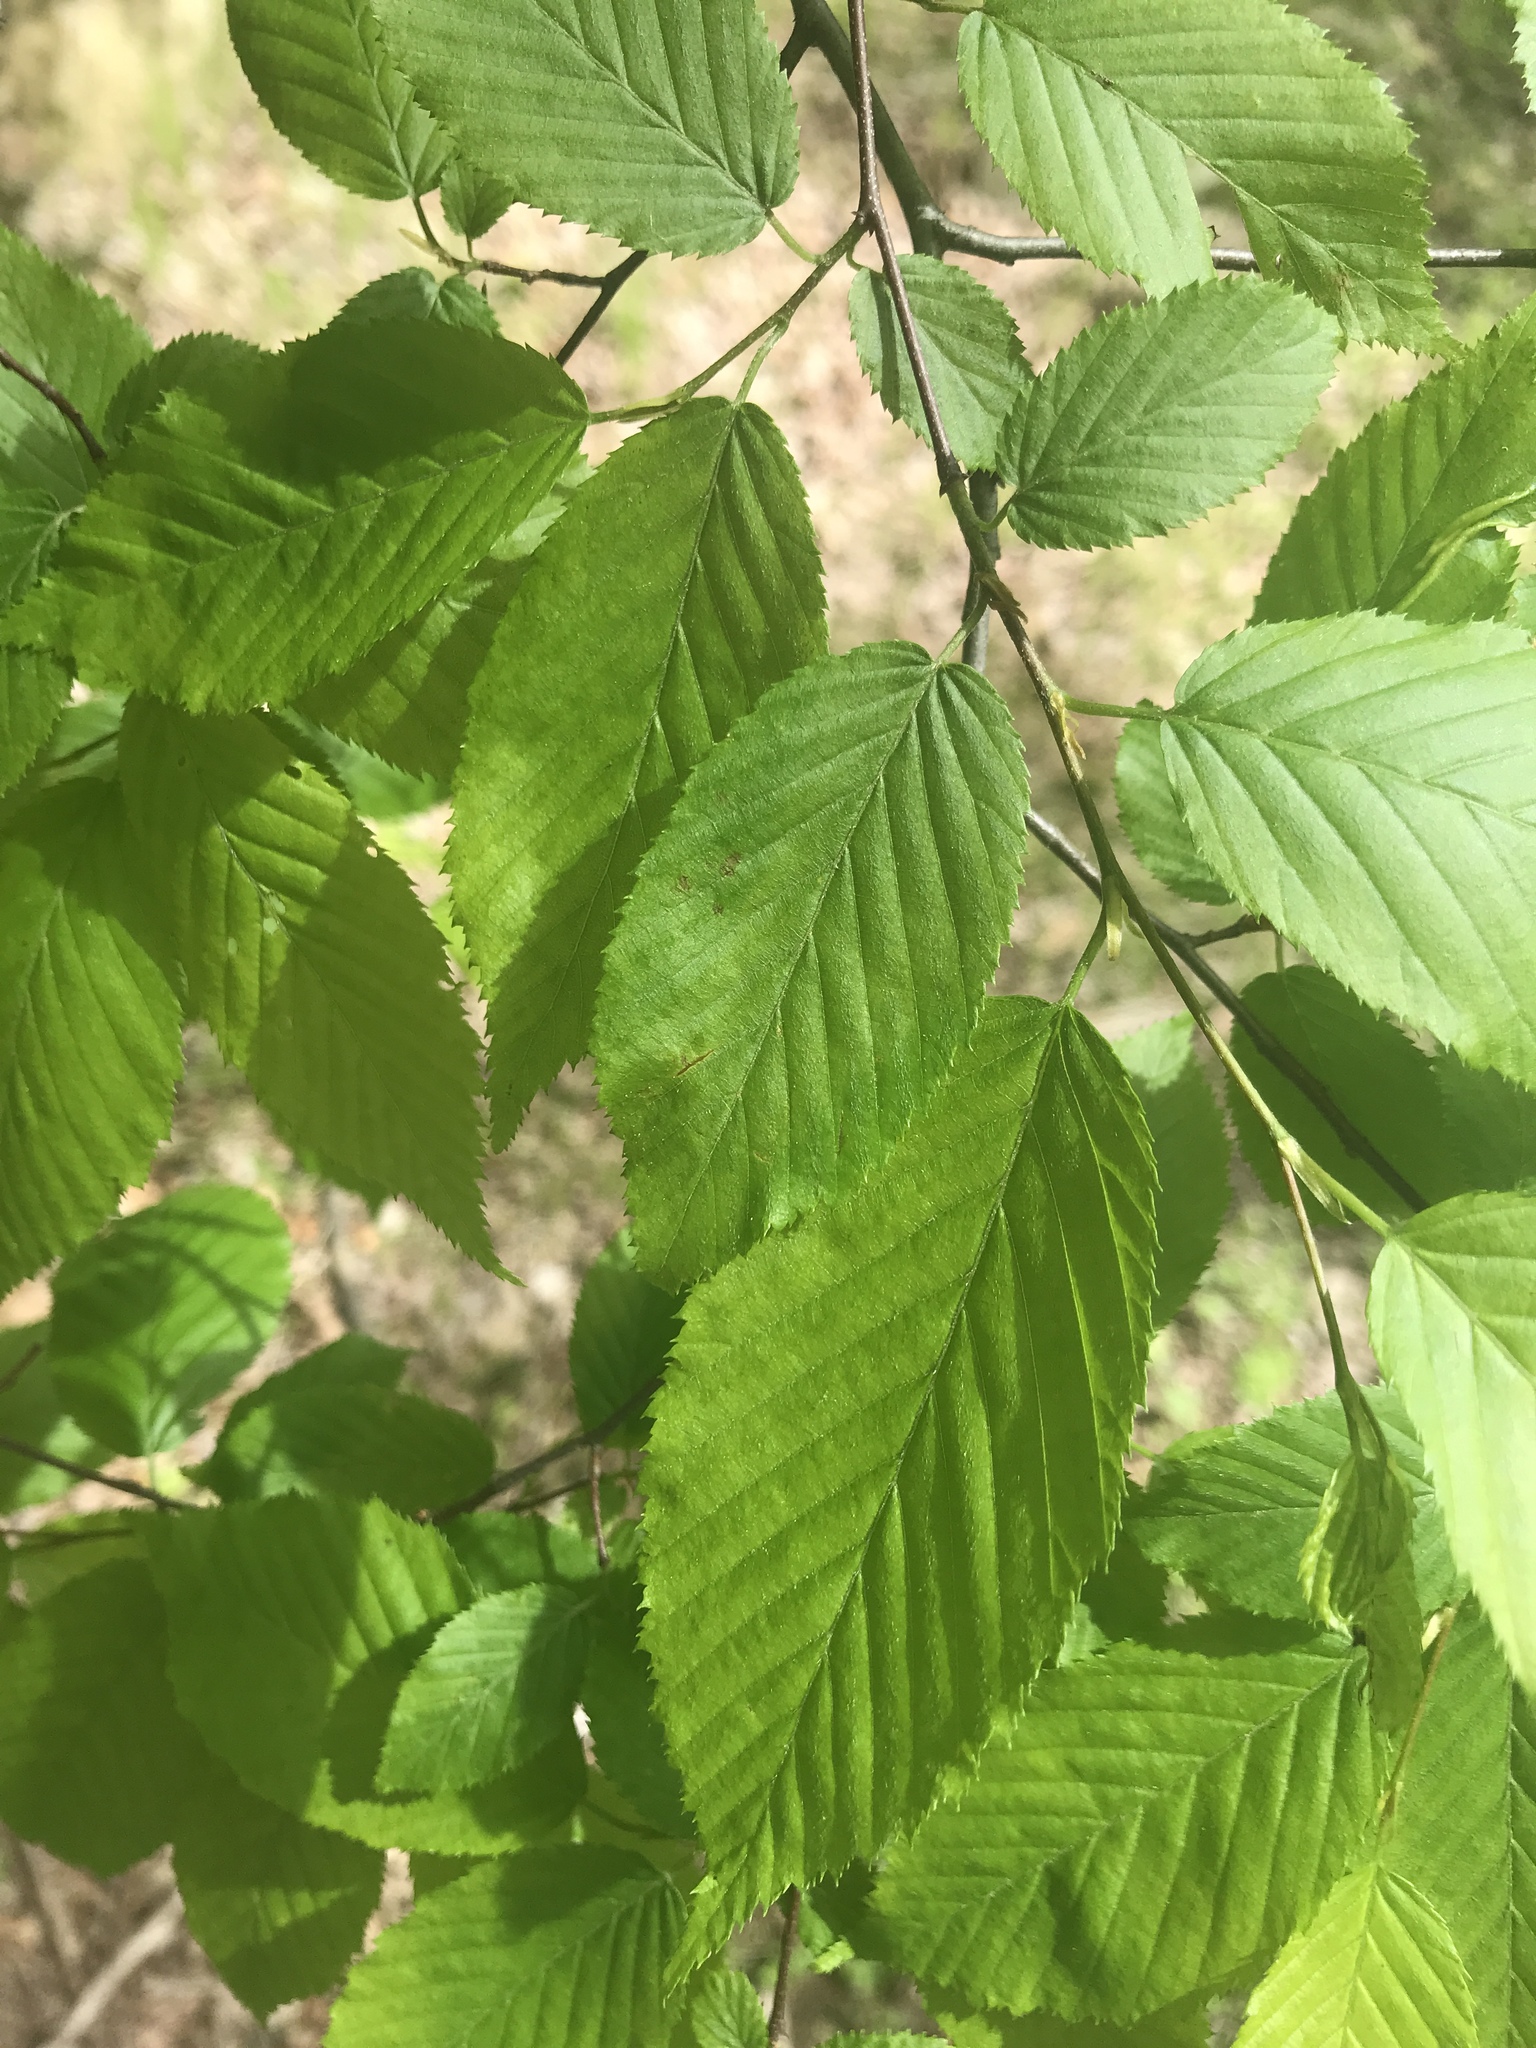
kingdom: Plantae
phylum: Tracheophyta
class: Magnoliopsida
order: Fagales
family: Betulaceae
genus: Carpinus
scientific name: Carpinus caroliniana
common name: American hornbeam
